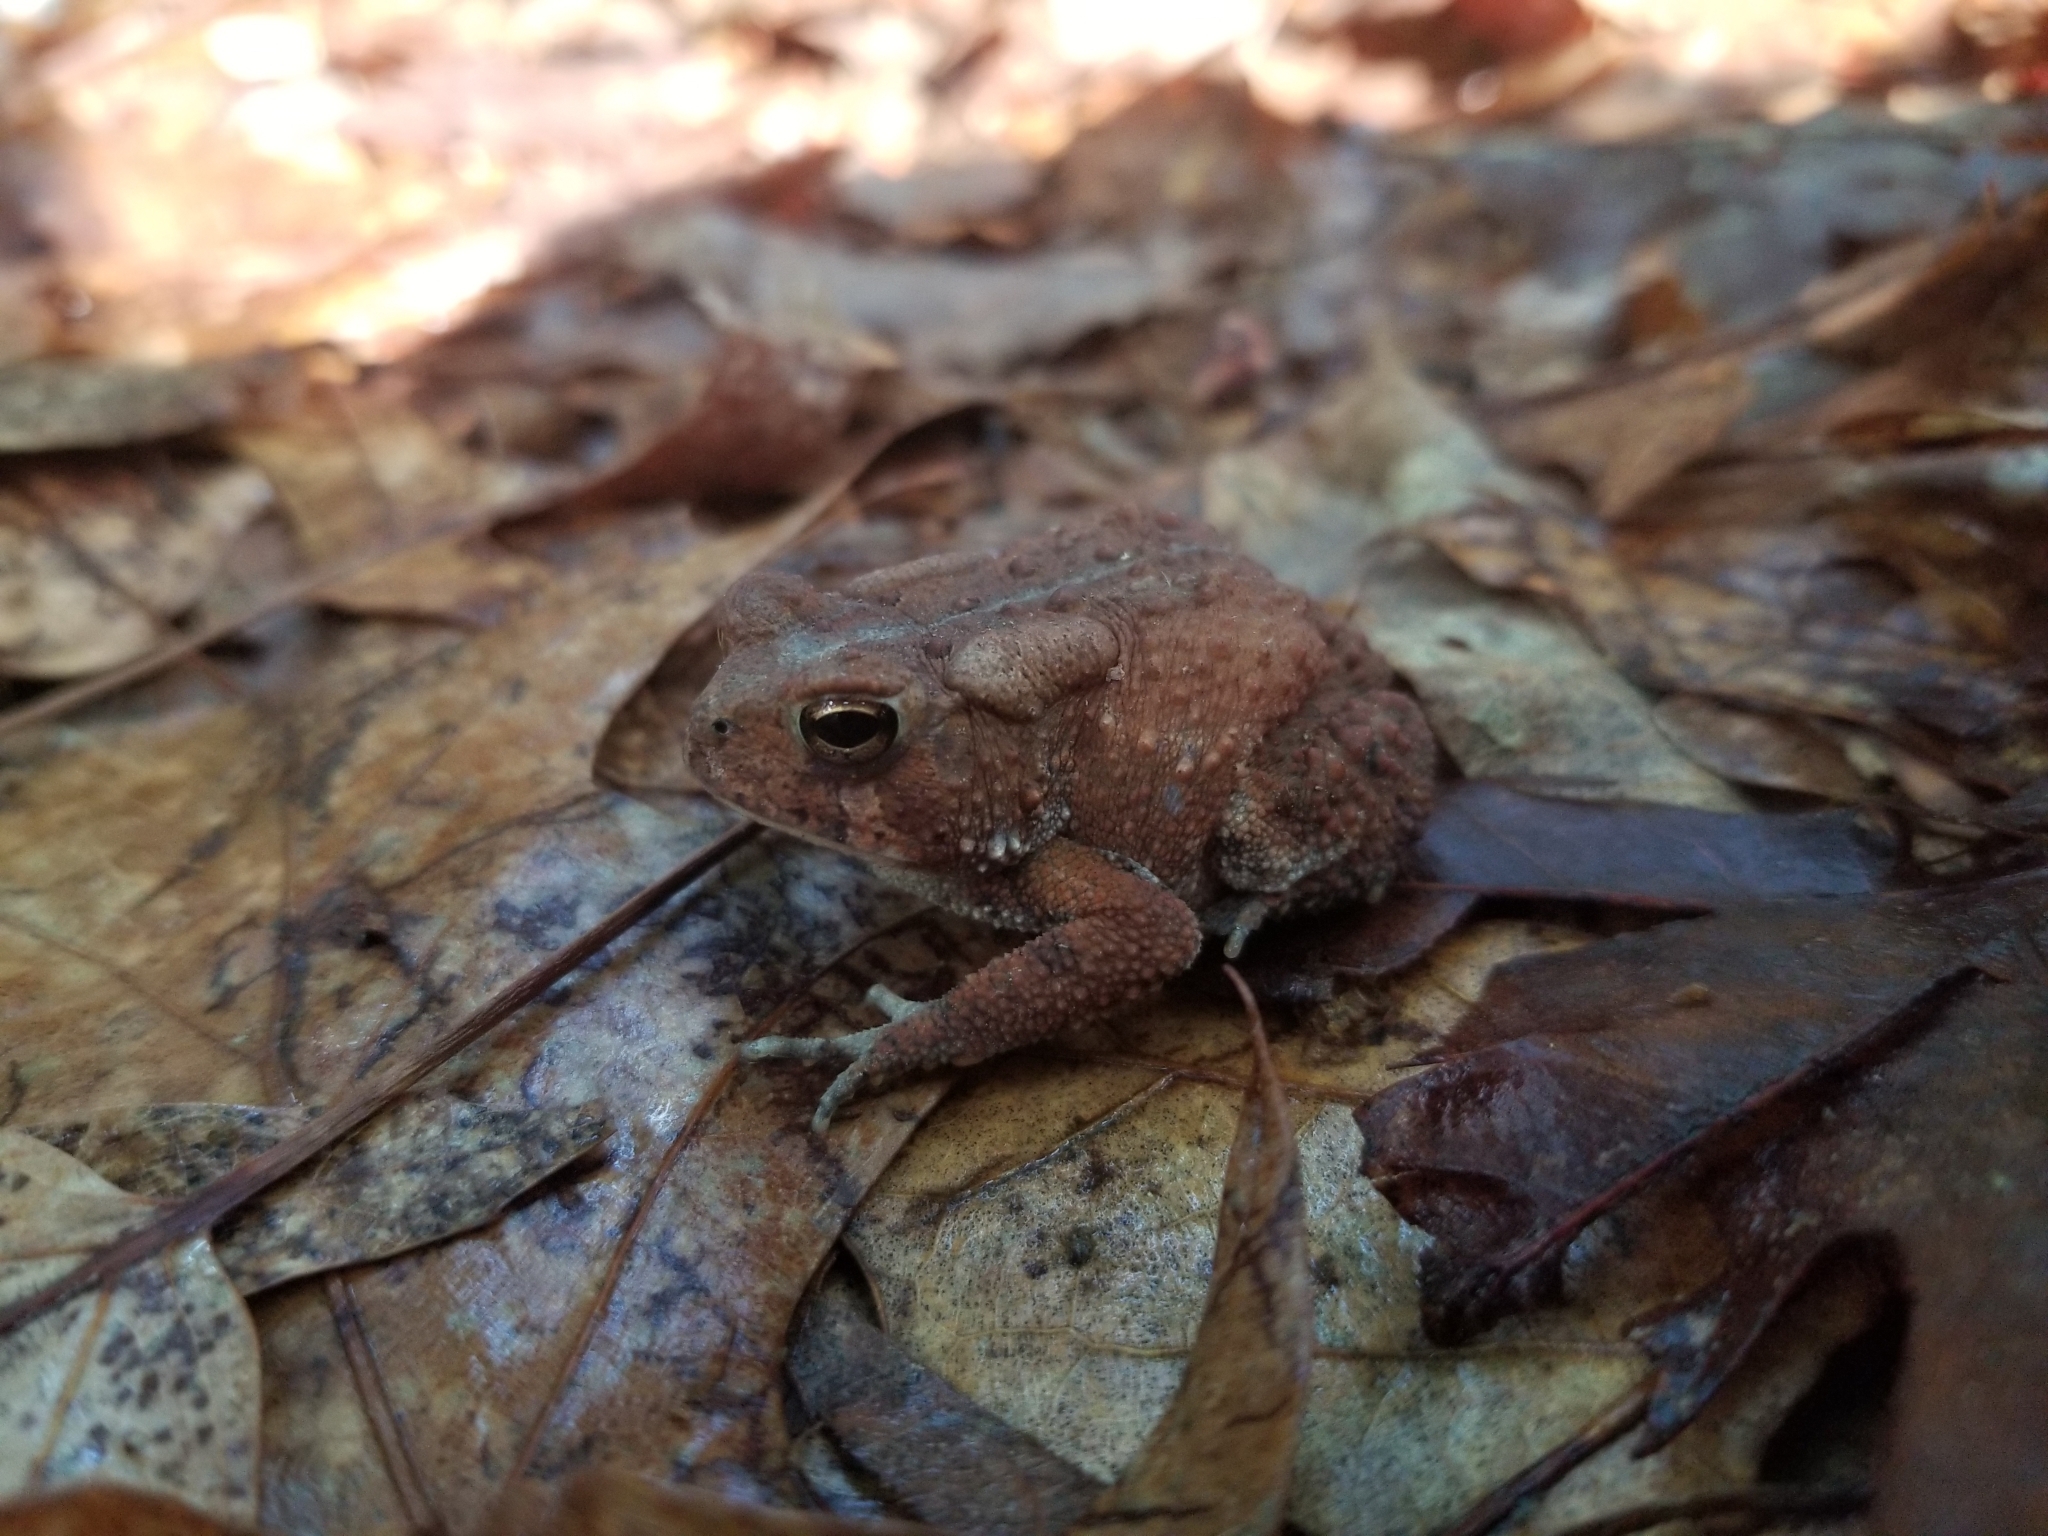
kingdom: Animalia
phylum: Chordata
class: Amphibia
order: Anura
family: Bufonidae
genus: Anaxyrus
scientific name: Anaxyrus americanus
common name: American toad
